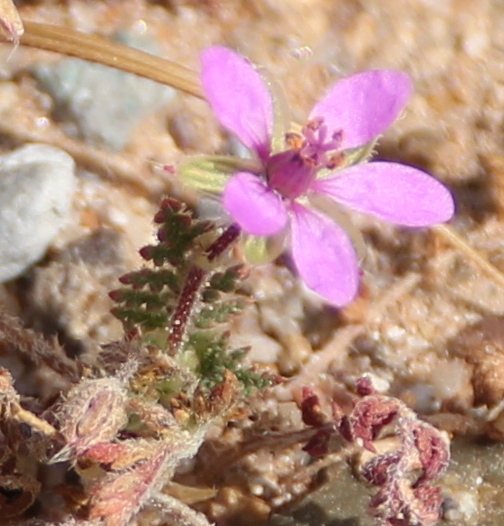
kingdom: Plantae
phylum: Tracheophyta
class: Magnoliopsida
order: Geraniales
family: Geraniaceae
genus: Erodium
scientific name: Erodium cicutarium
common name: Common stork's-bill
